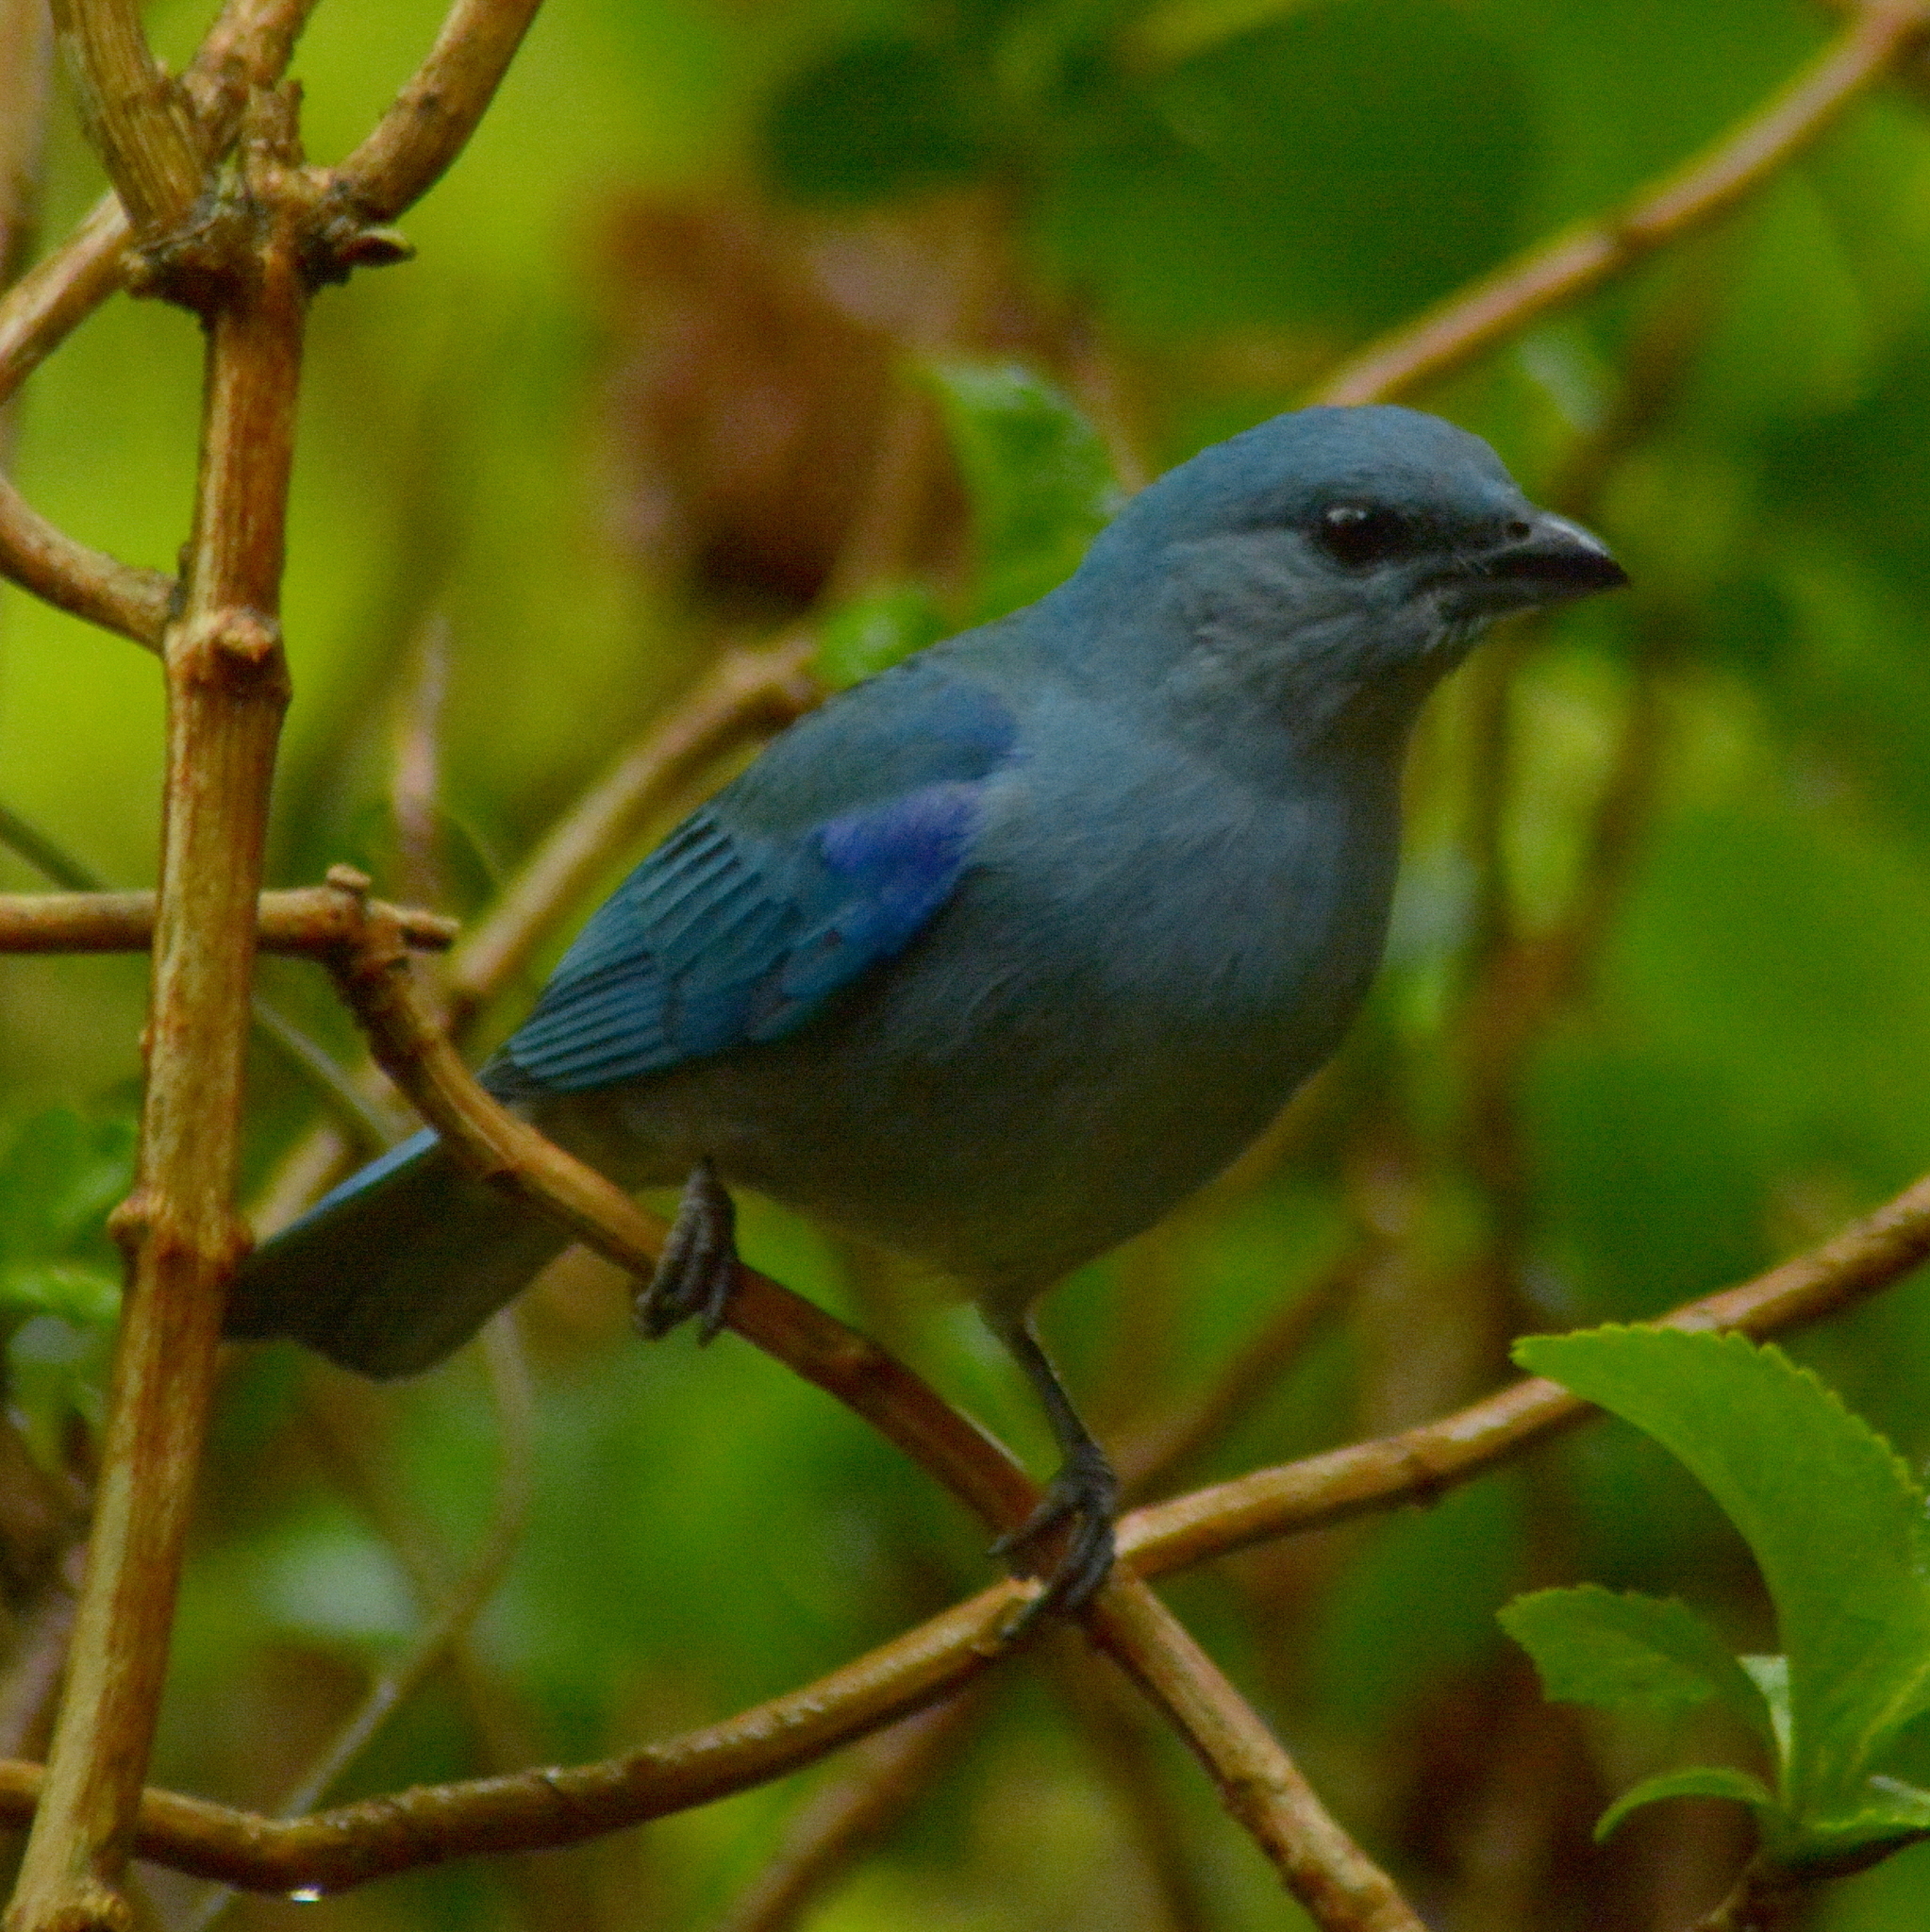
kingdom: Animalia
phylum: Chordata
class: Aves
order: Passeriformes
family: Thraupidae
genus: Thraupis
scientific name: Thraupis cyanoptera
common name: Azure-shouldered tanager
